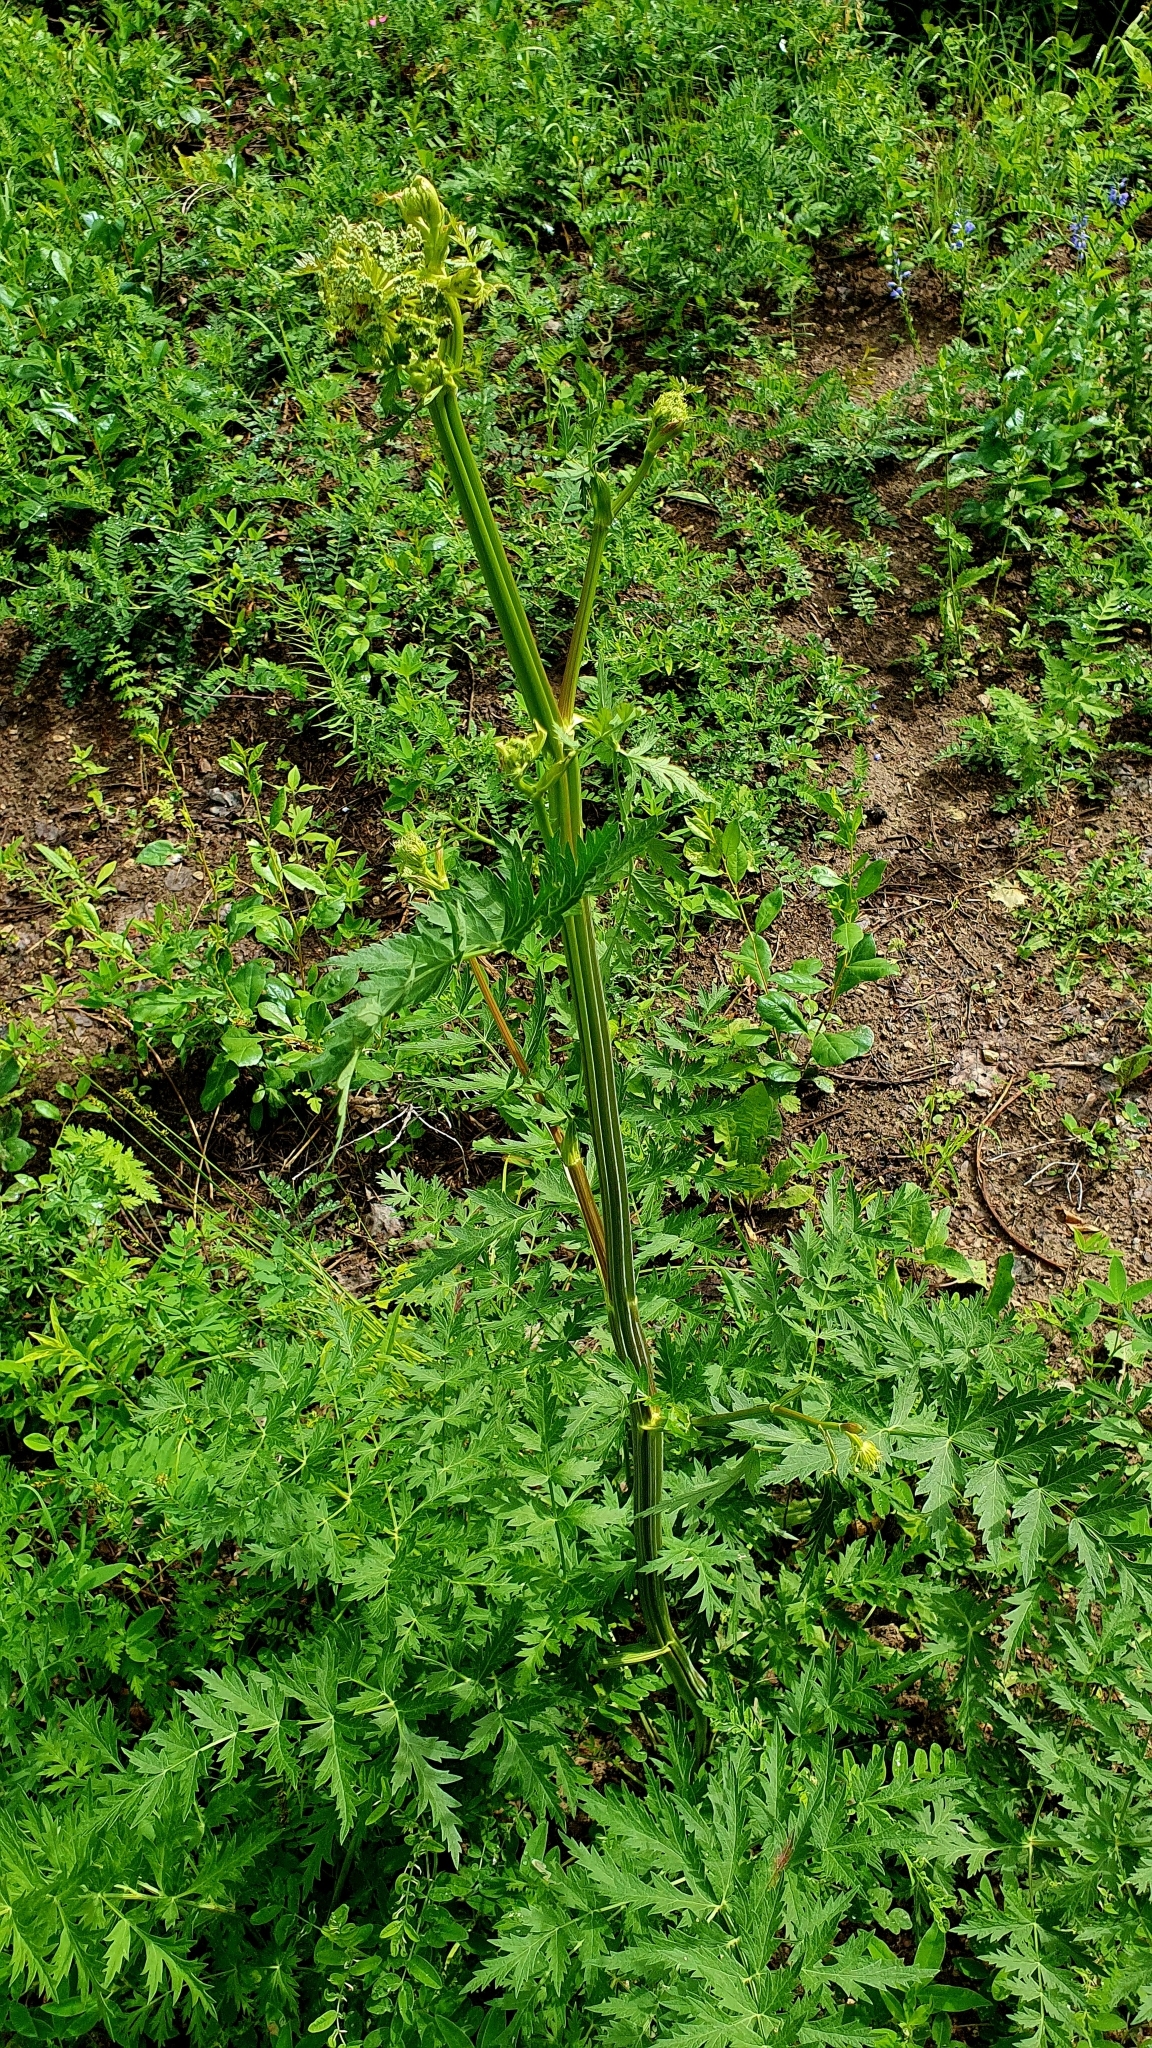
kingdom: Plantae
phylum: Tracheophyta
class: Magnoliopsida
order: Apiales
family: Apiaceae
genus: Seseli
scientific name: Seseli libanotis
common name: Mooncarrot
